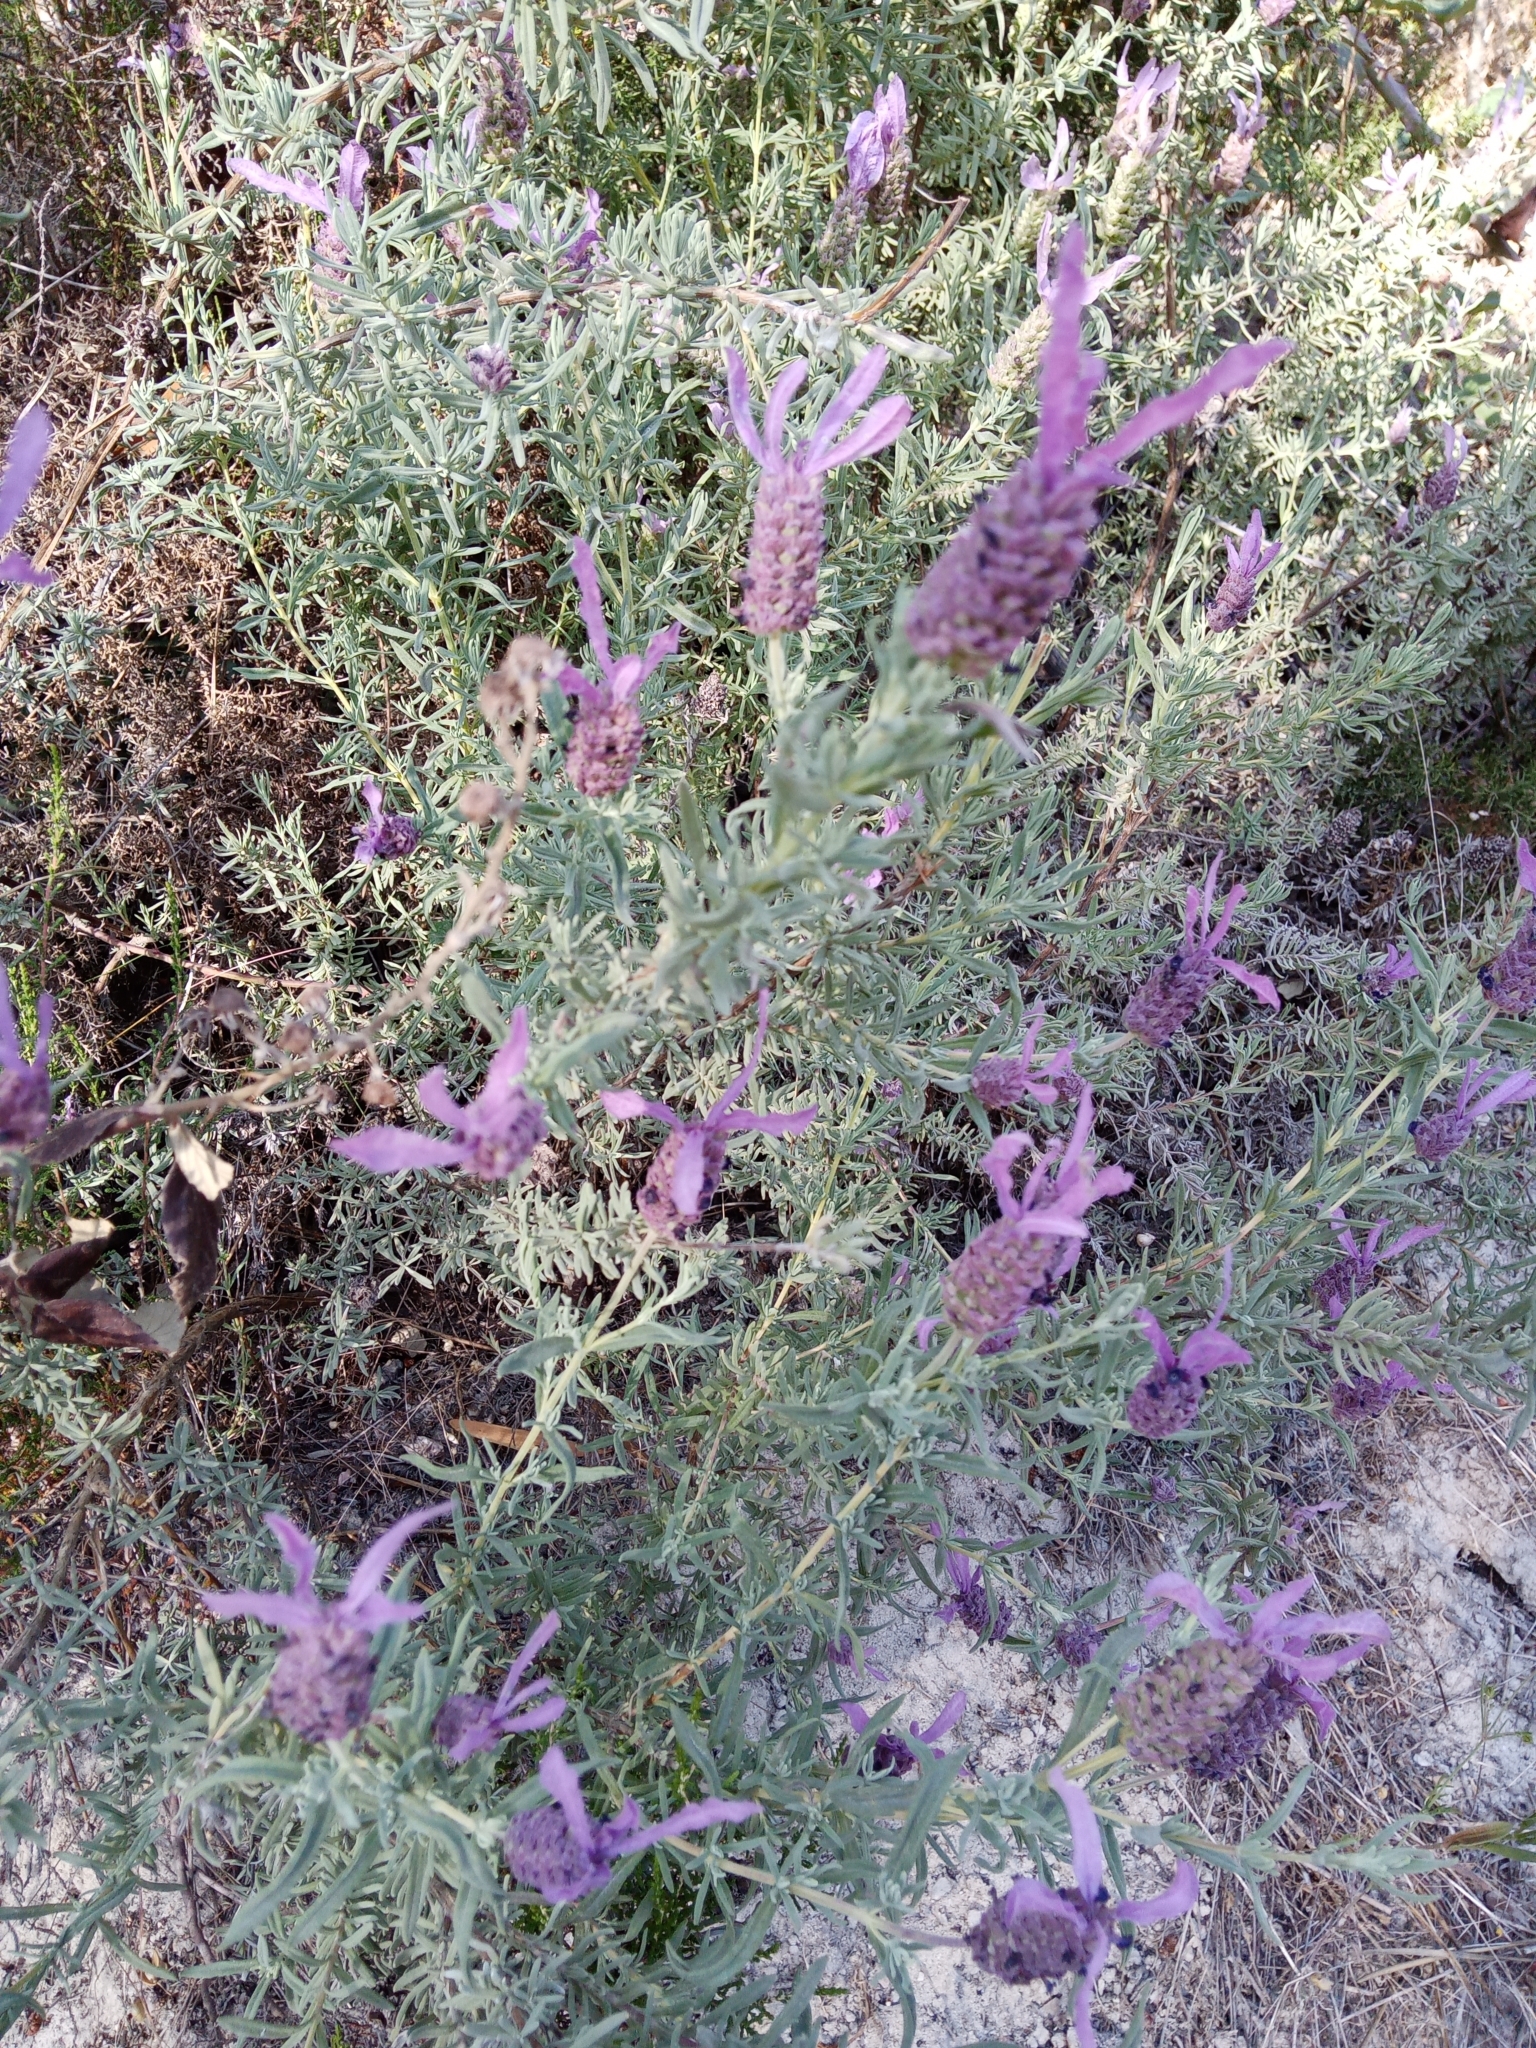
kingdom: Plantae
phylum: Tracheophyta
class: Magnoliopsida
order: Lamiales
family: Lamiaceae
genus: Lavandula
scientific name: Lavandula stoechas
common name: French lavender
